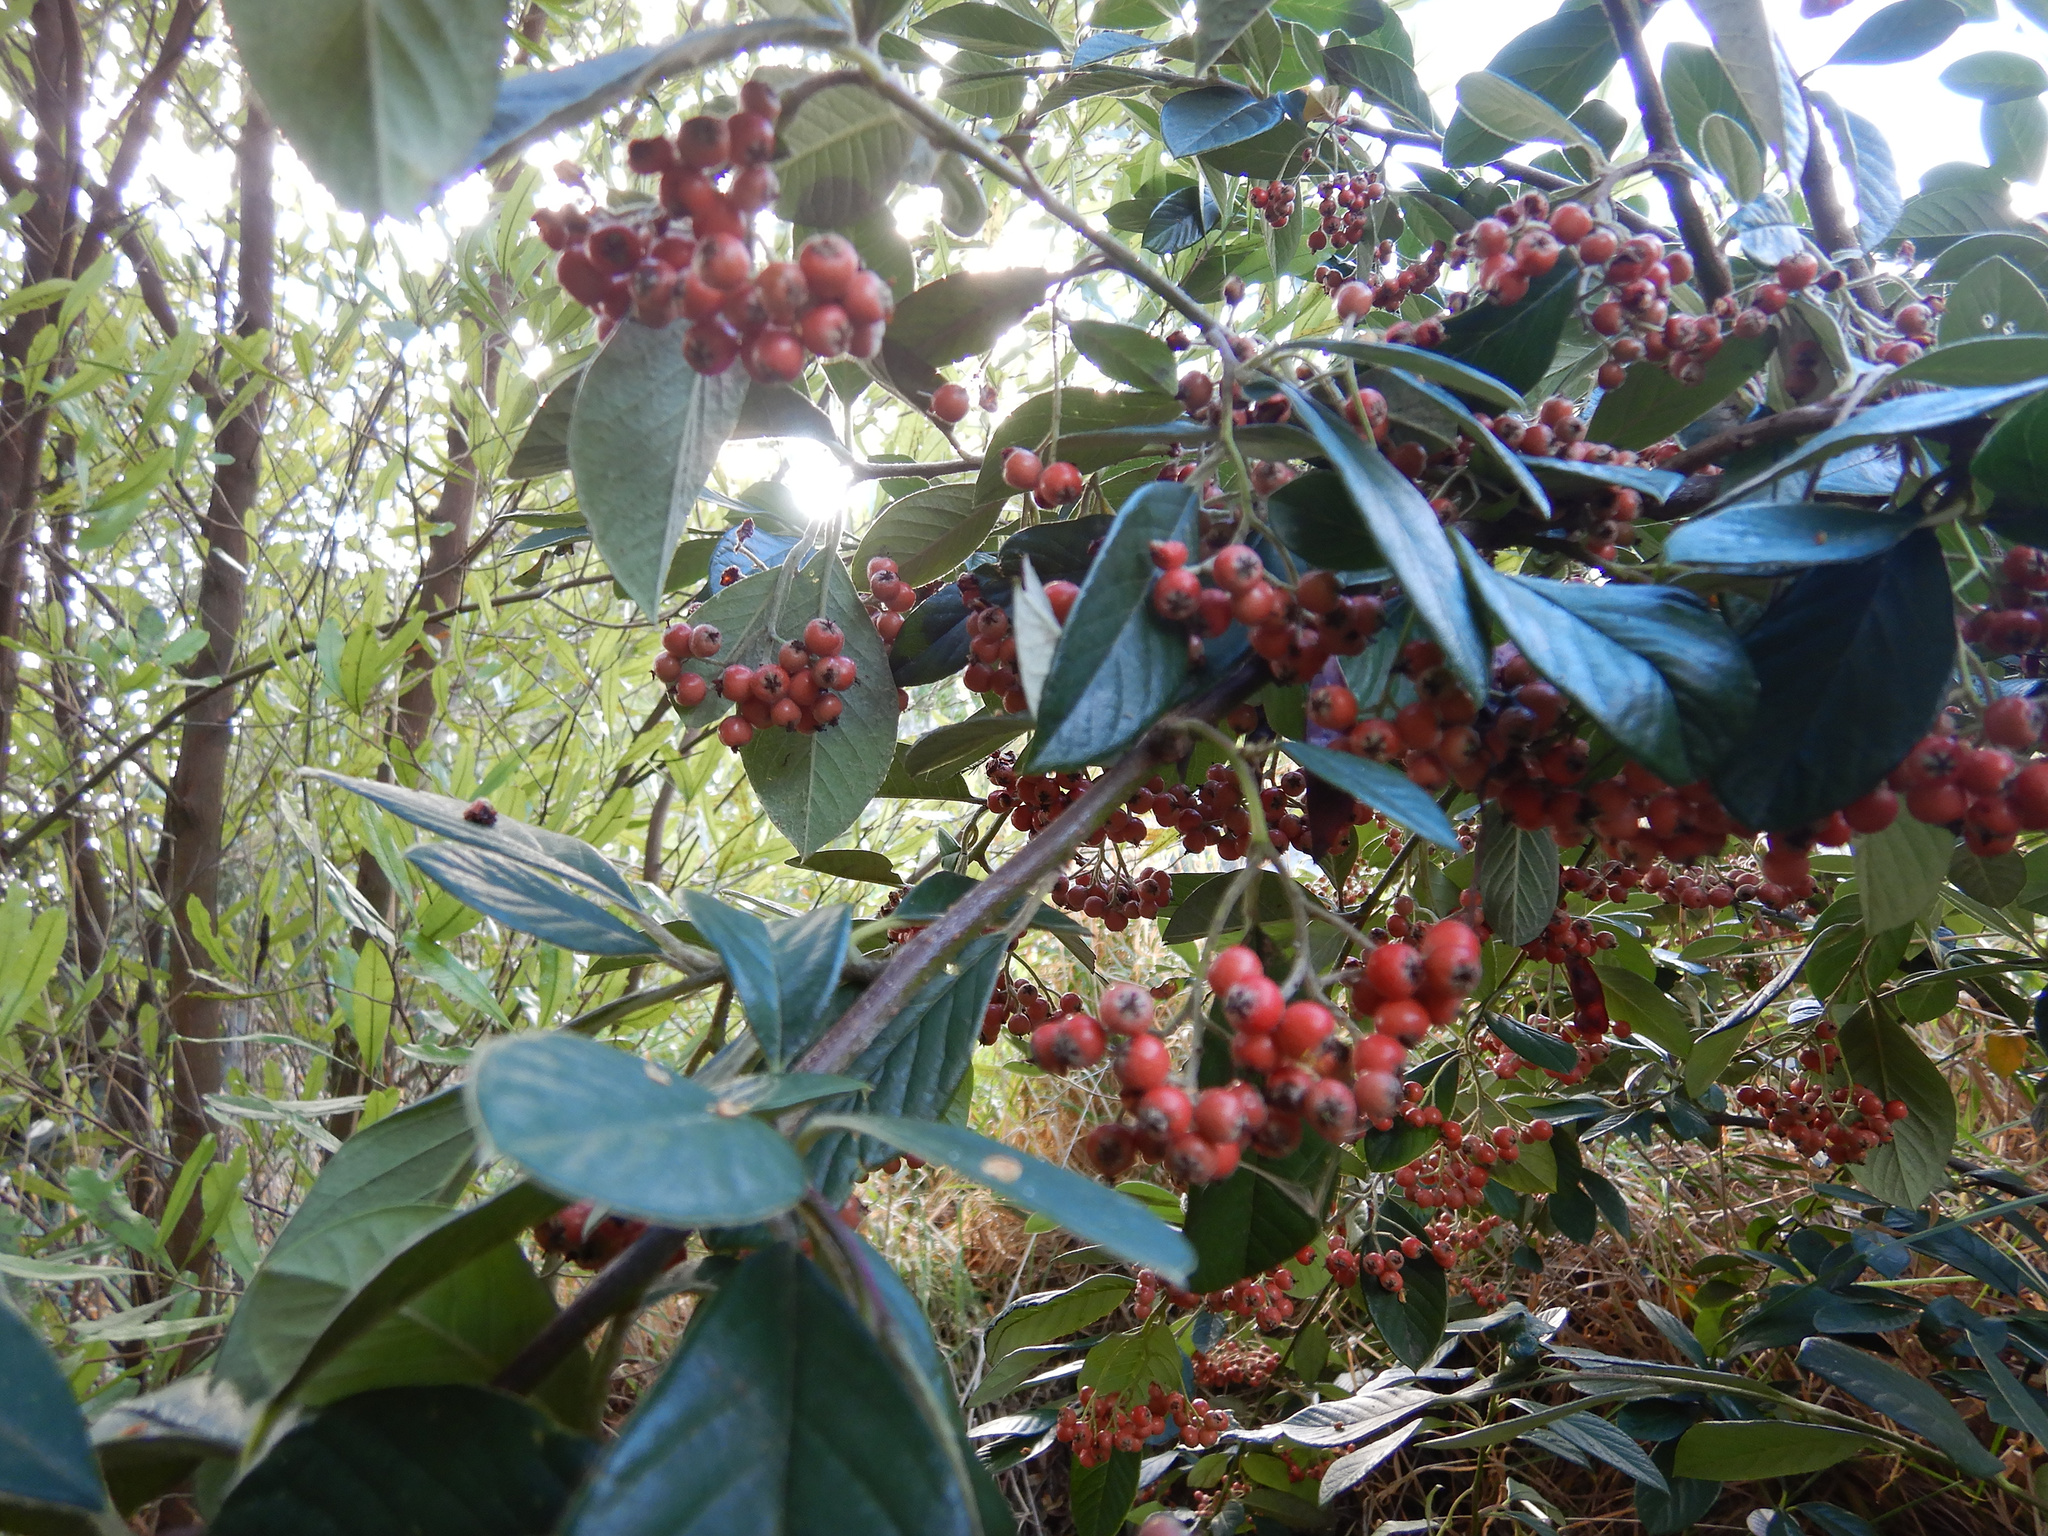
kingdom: Plantae
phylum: Tracheophyta
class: Magnoliopsida
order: Rosales
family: Rosaceae
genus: Cotoneaster
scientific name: Cotoneaster coriaceus
